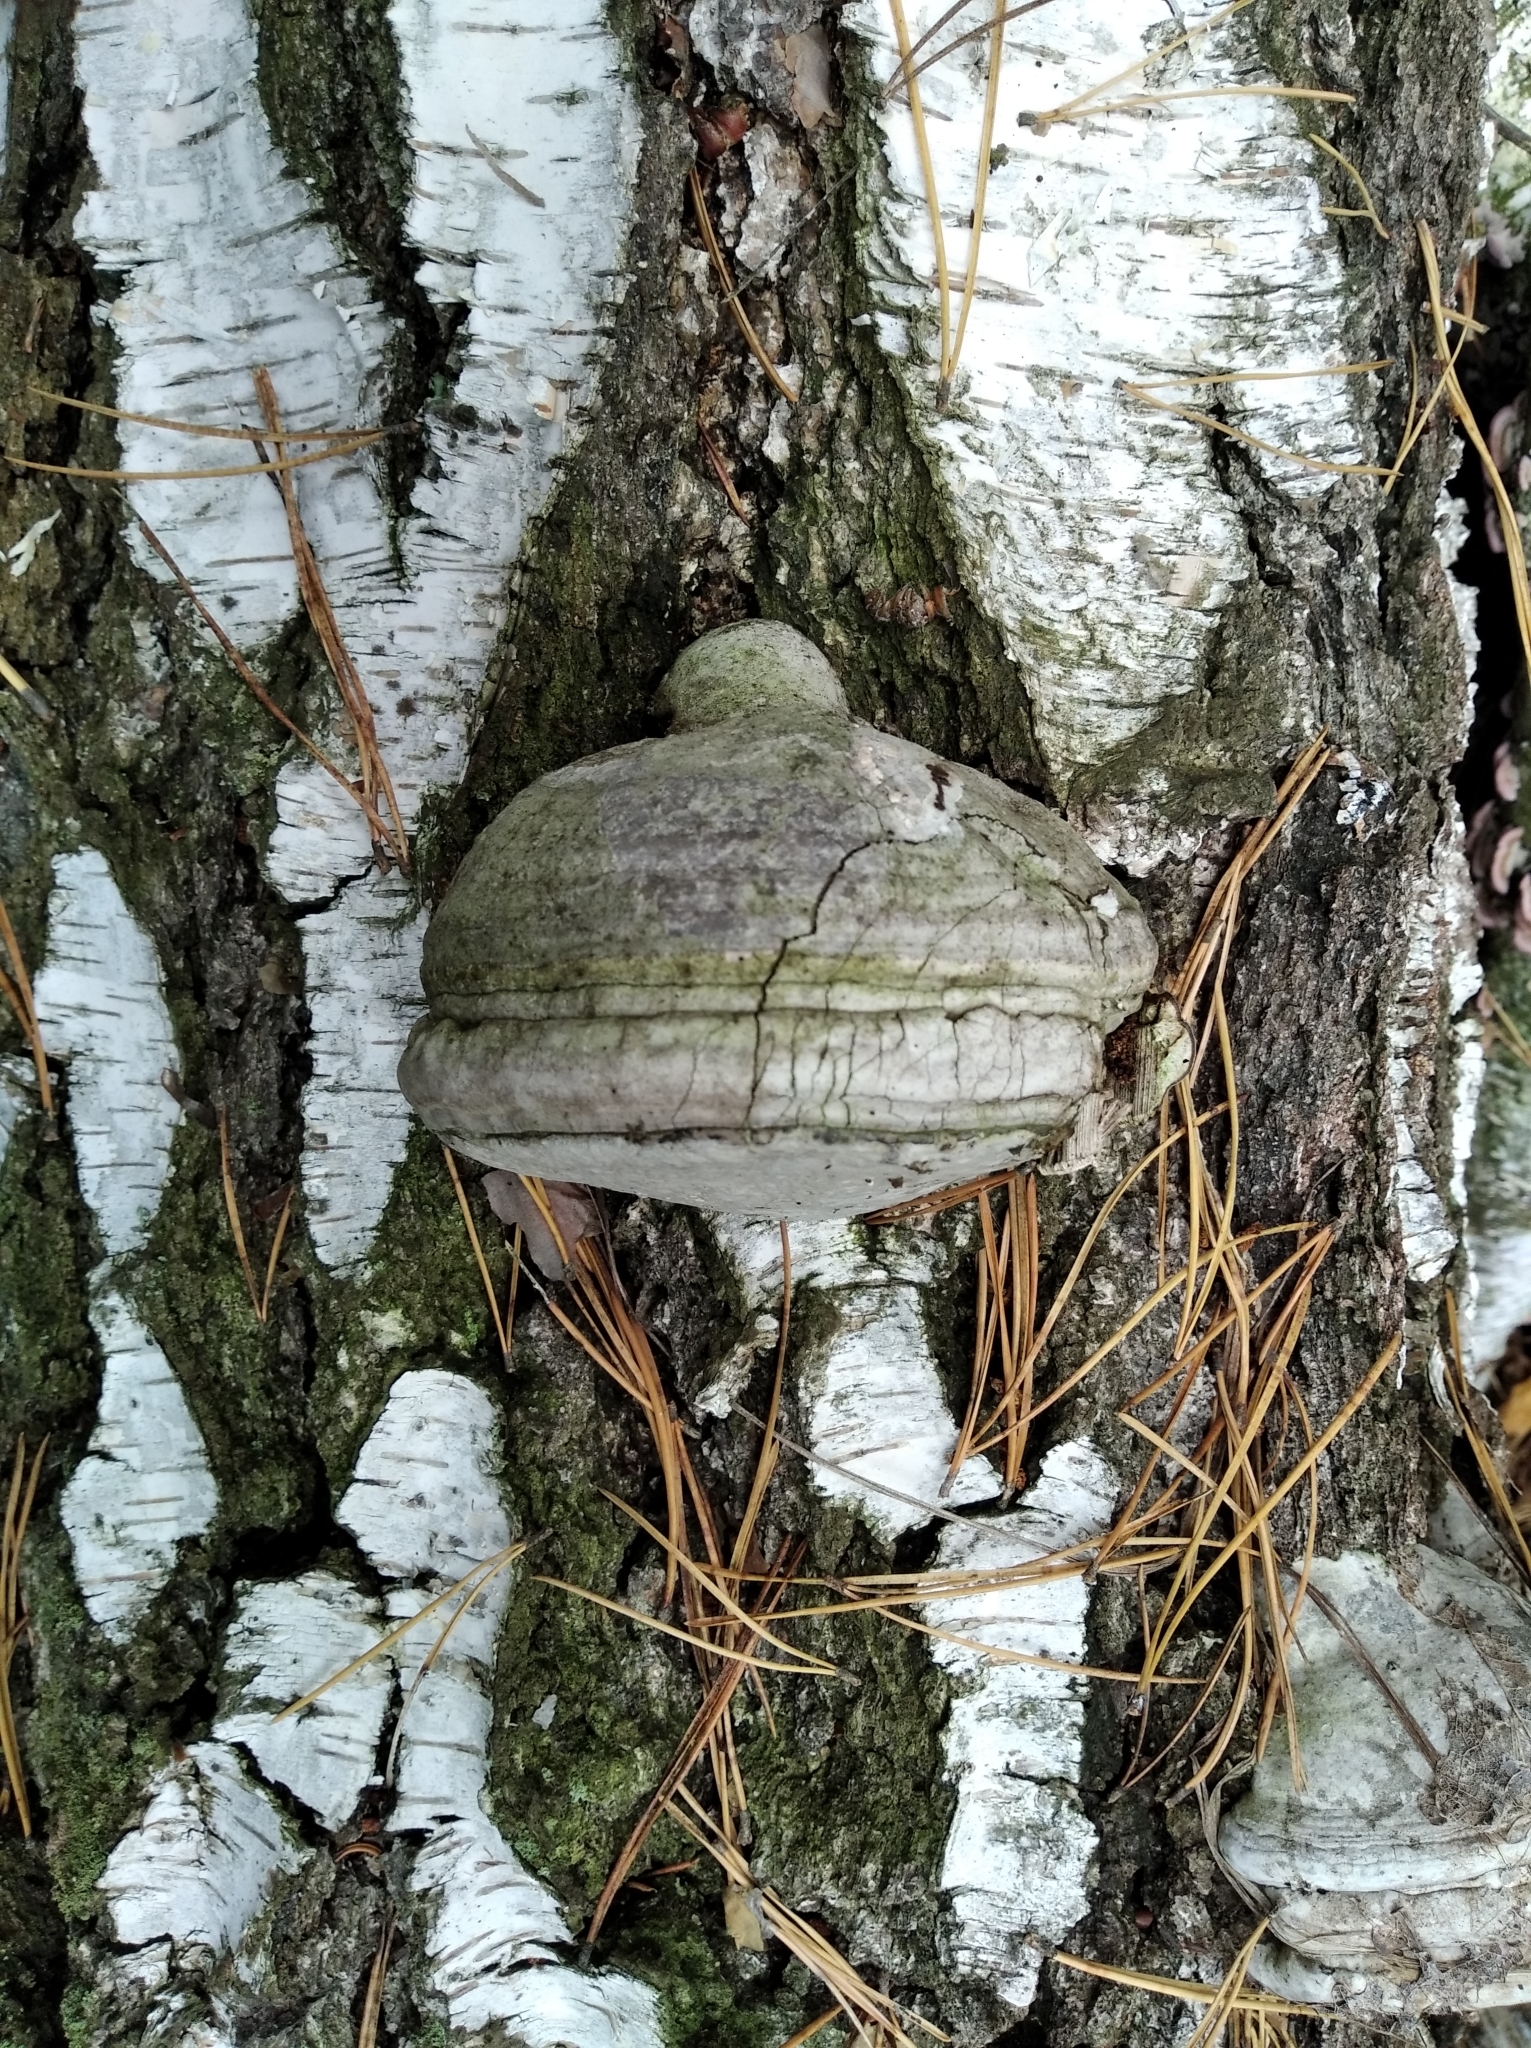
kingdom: Fungi
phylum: Basidiomycota
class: Agaricomycetes
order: Polyporales
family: Polyporaceae
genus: Fomes
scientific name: Fomes fomentarius
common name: Hoof fungus
